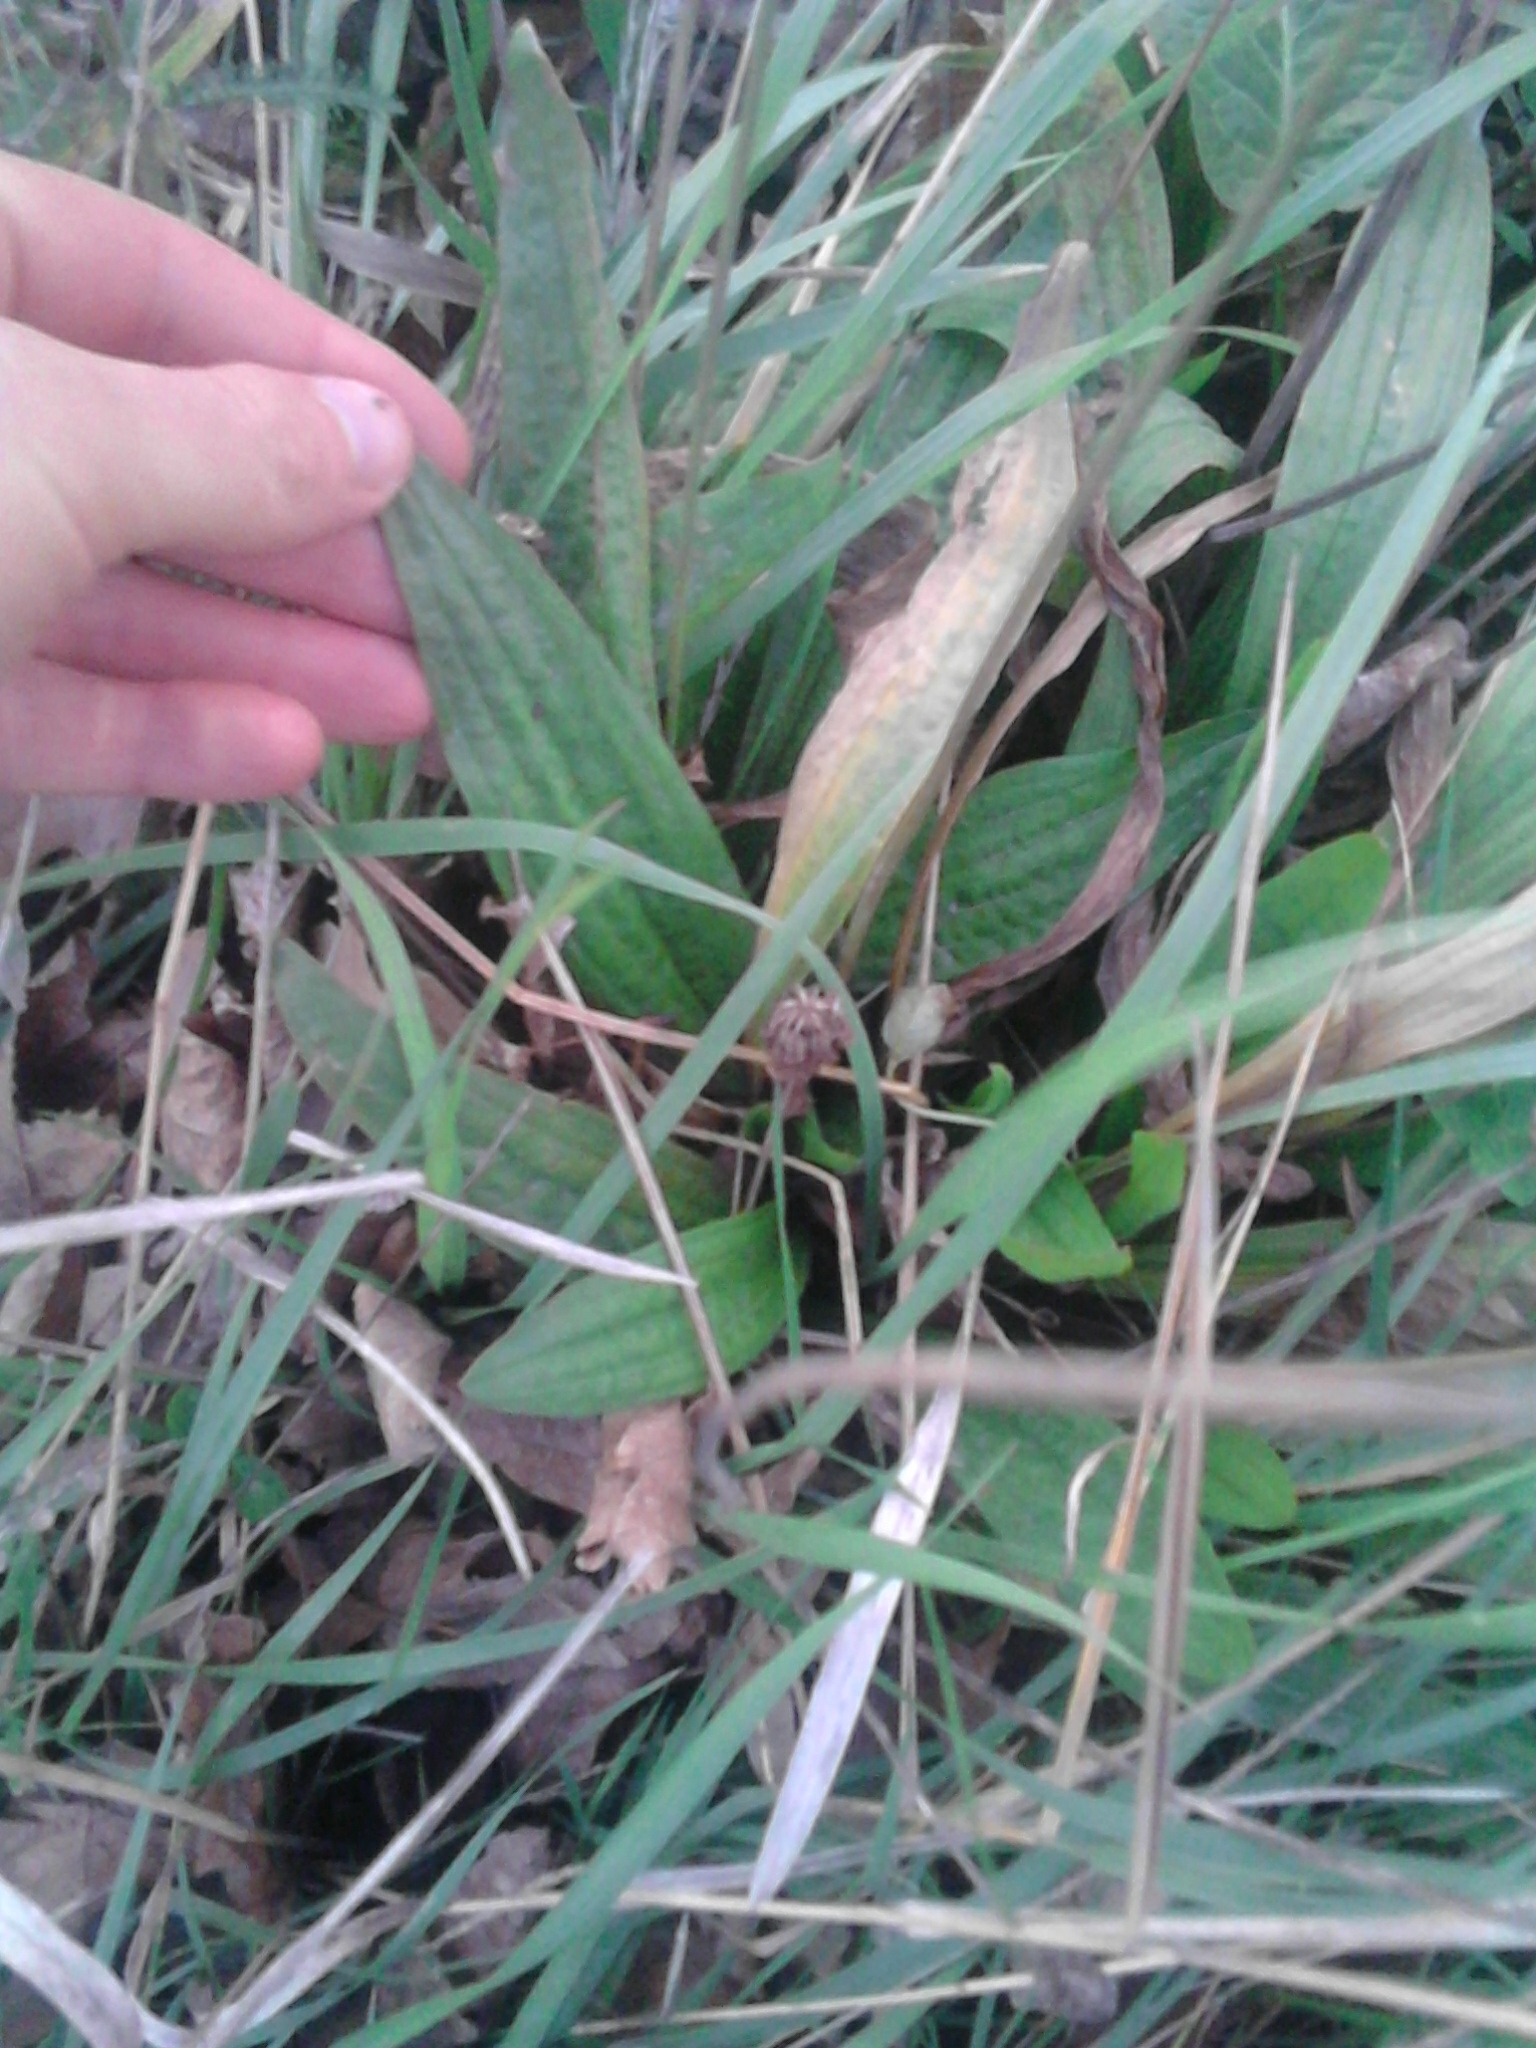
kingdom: Plantae
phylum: Tracheophyta
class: Magnoliopsida
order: Lamiales
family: Plantaginaceae
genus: Plantago
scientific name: Plantago lanceolata
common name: Ribwort plantain
